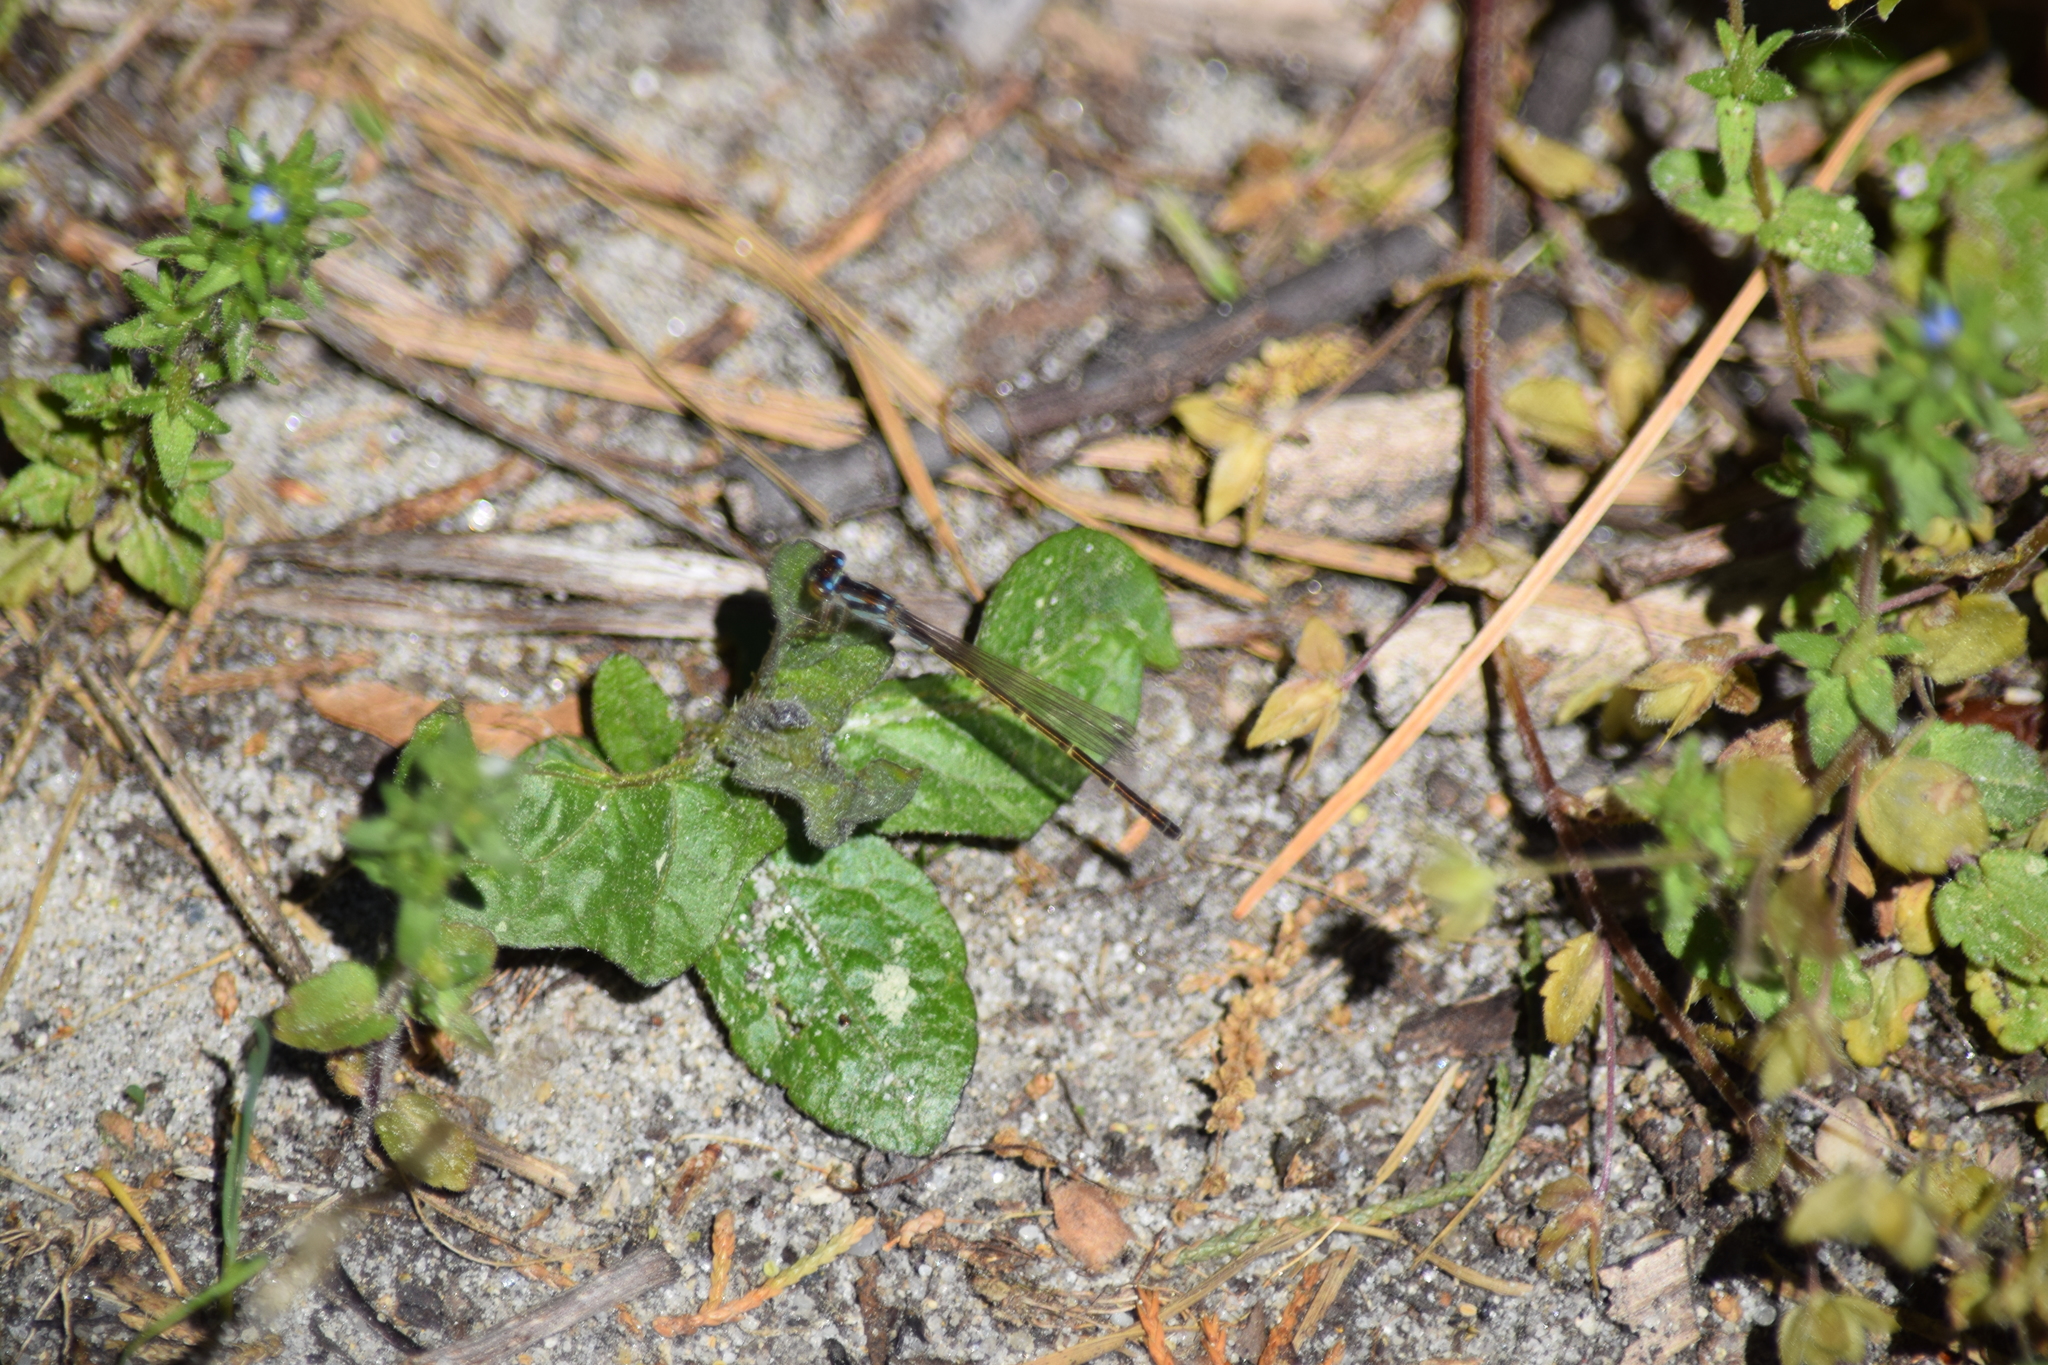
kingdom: Animalia
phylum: Arthropoda
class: Insecta
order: Odonata
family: Coenagrionidae
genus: Ischnura
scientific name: Ischnura posita
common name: Fragile forktail
